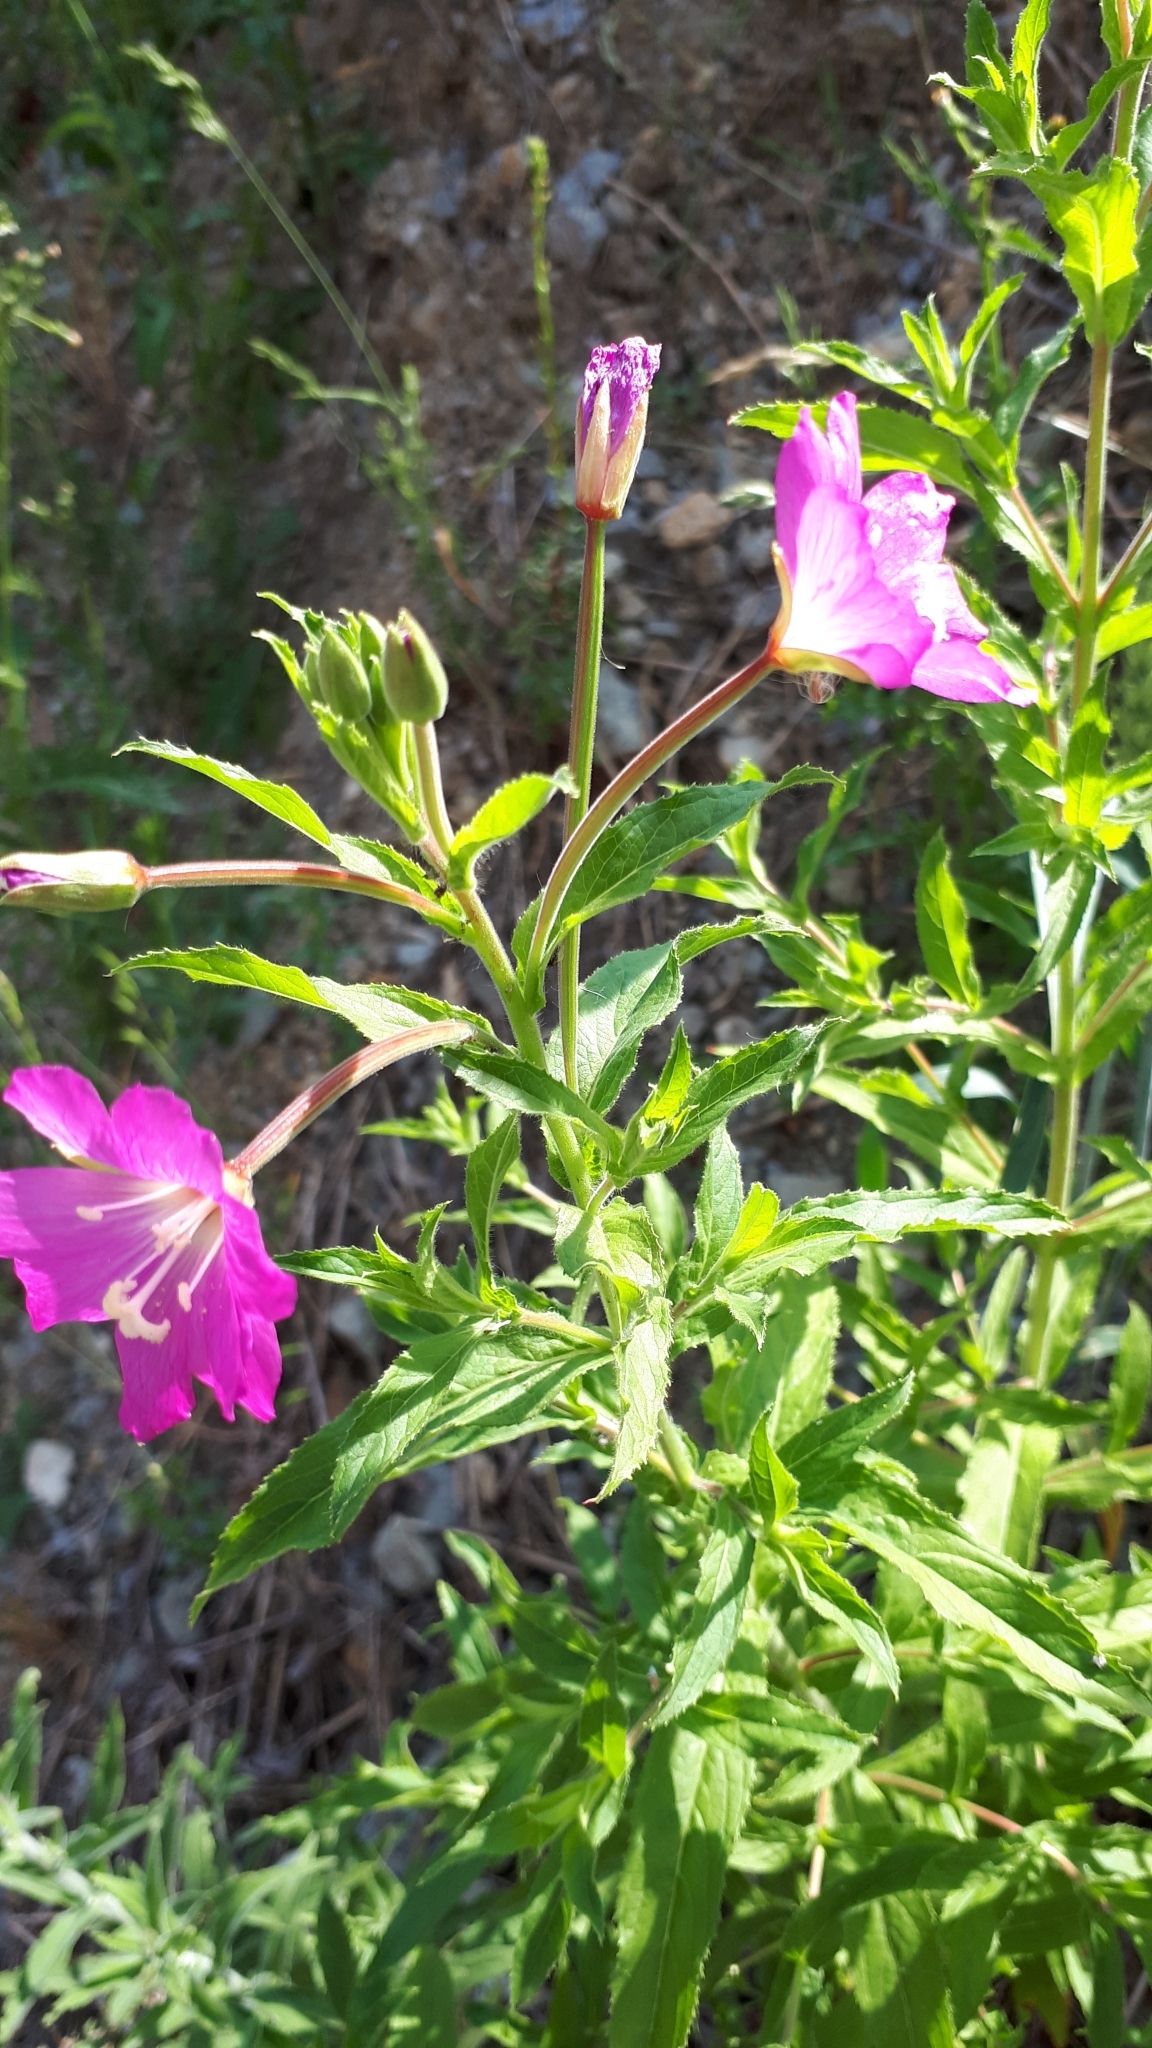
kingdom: Plantae
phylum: Tracheophyta
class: Magnoliopsida
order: Myrtales
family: Onagraceae
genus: Epilobium
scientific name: Epilobium hirsutum
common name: Great willowherb
